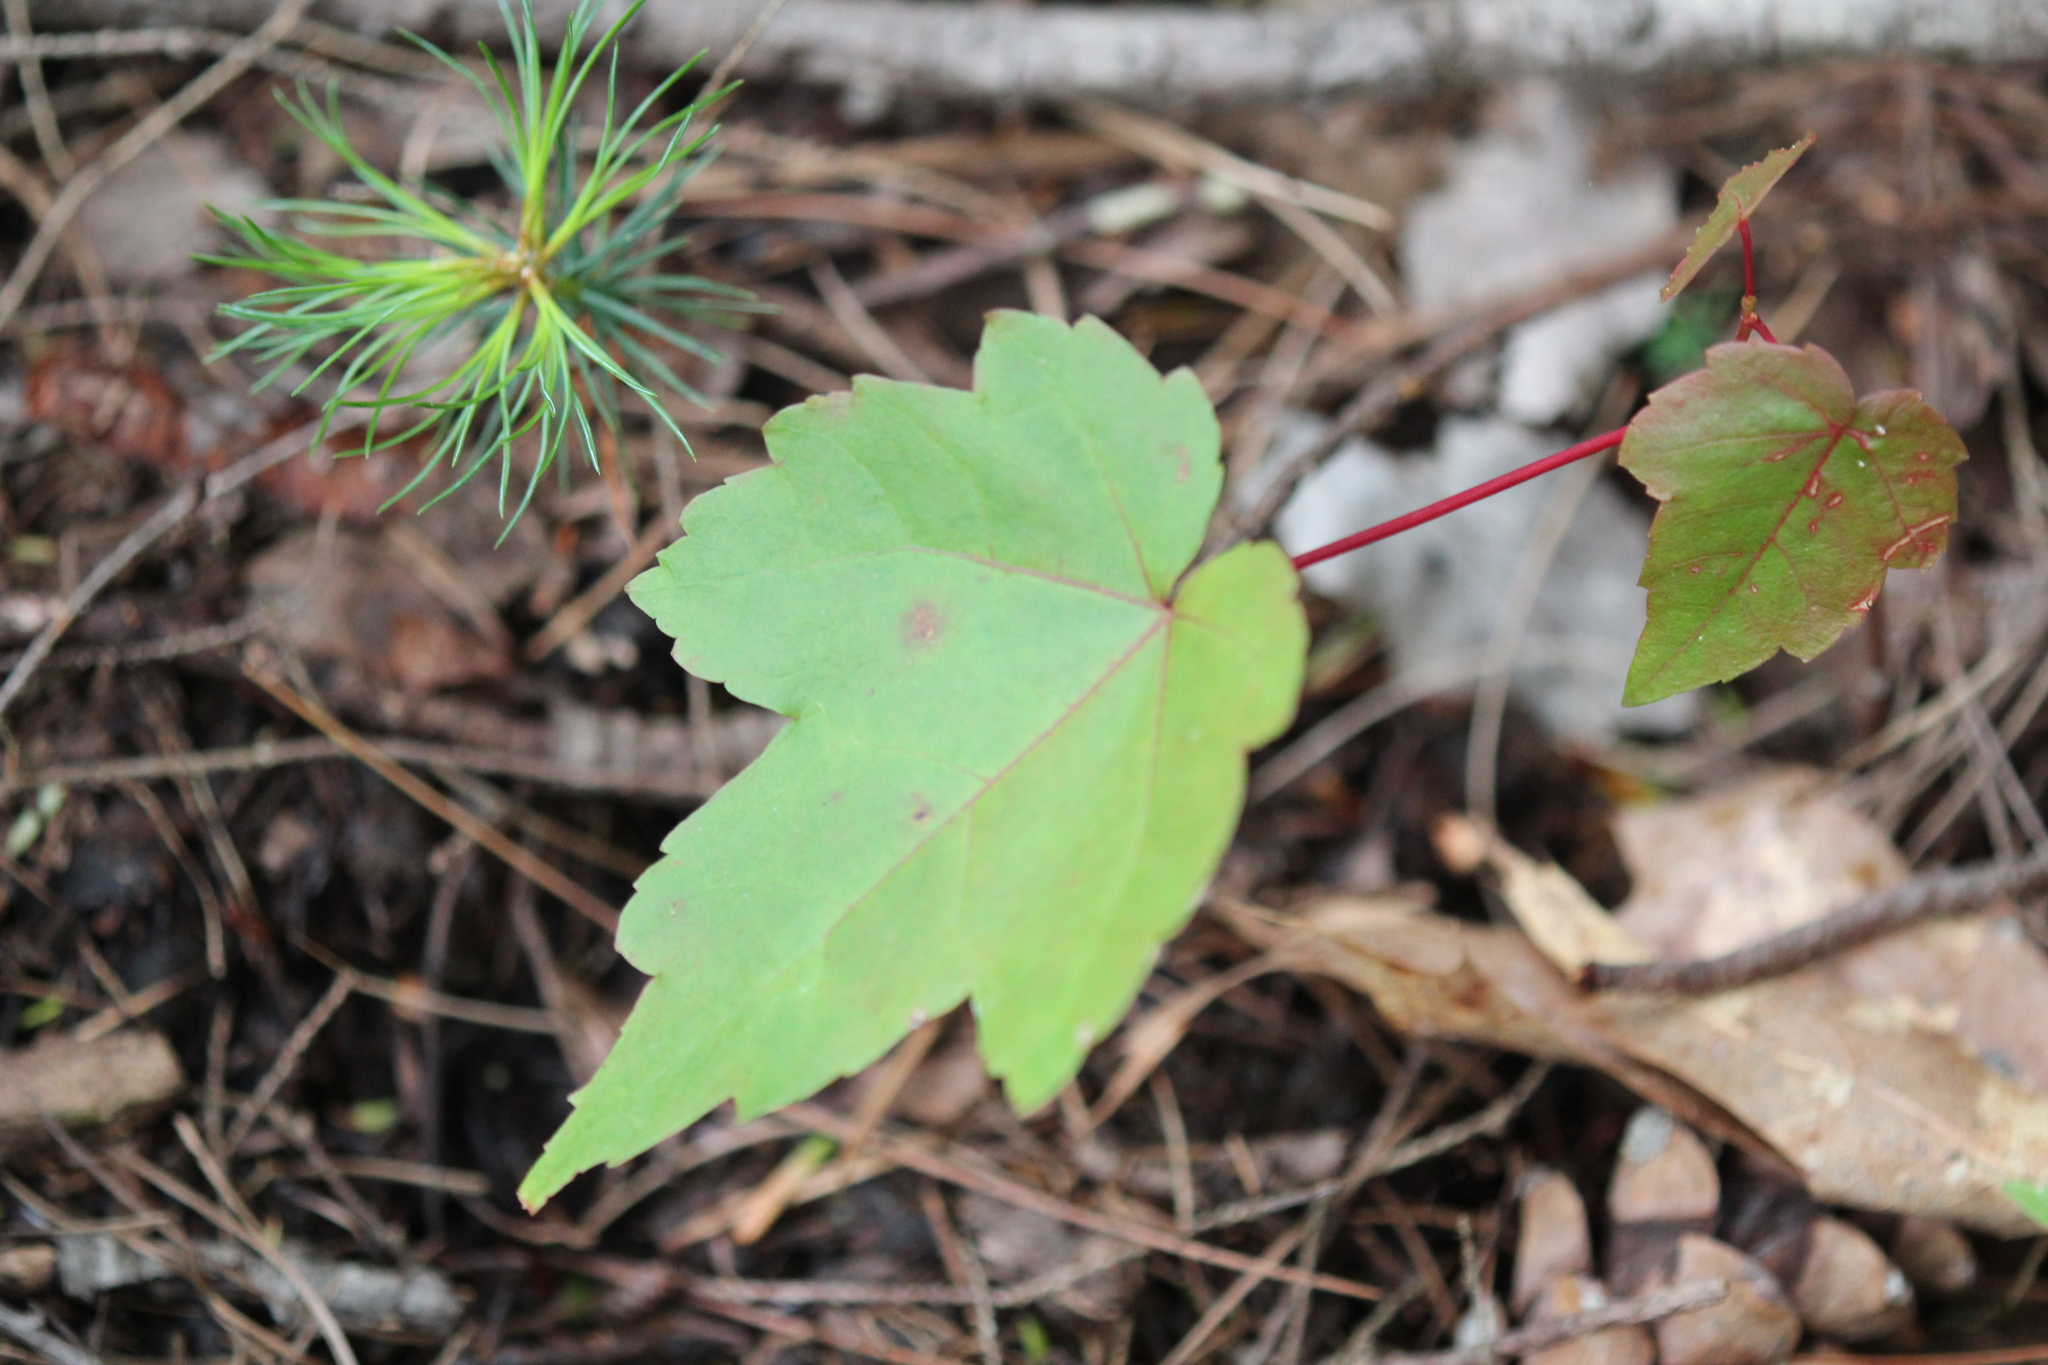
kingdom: Plantae
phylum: Tracheophyta
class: Magnoliopsida
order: Sapindales
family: Sapindaceae
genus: Acer
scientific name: Acer rubrum
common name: Red maple
